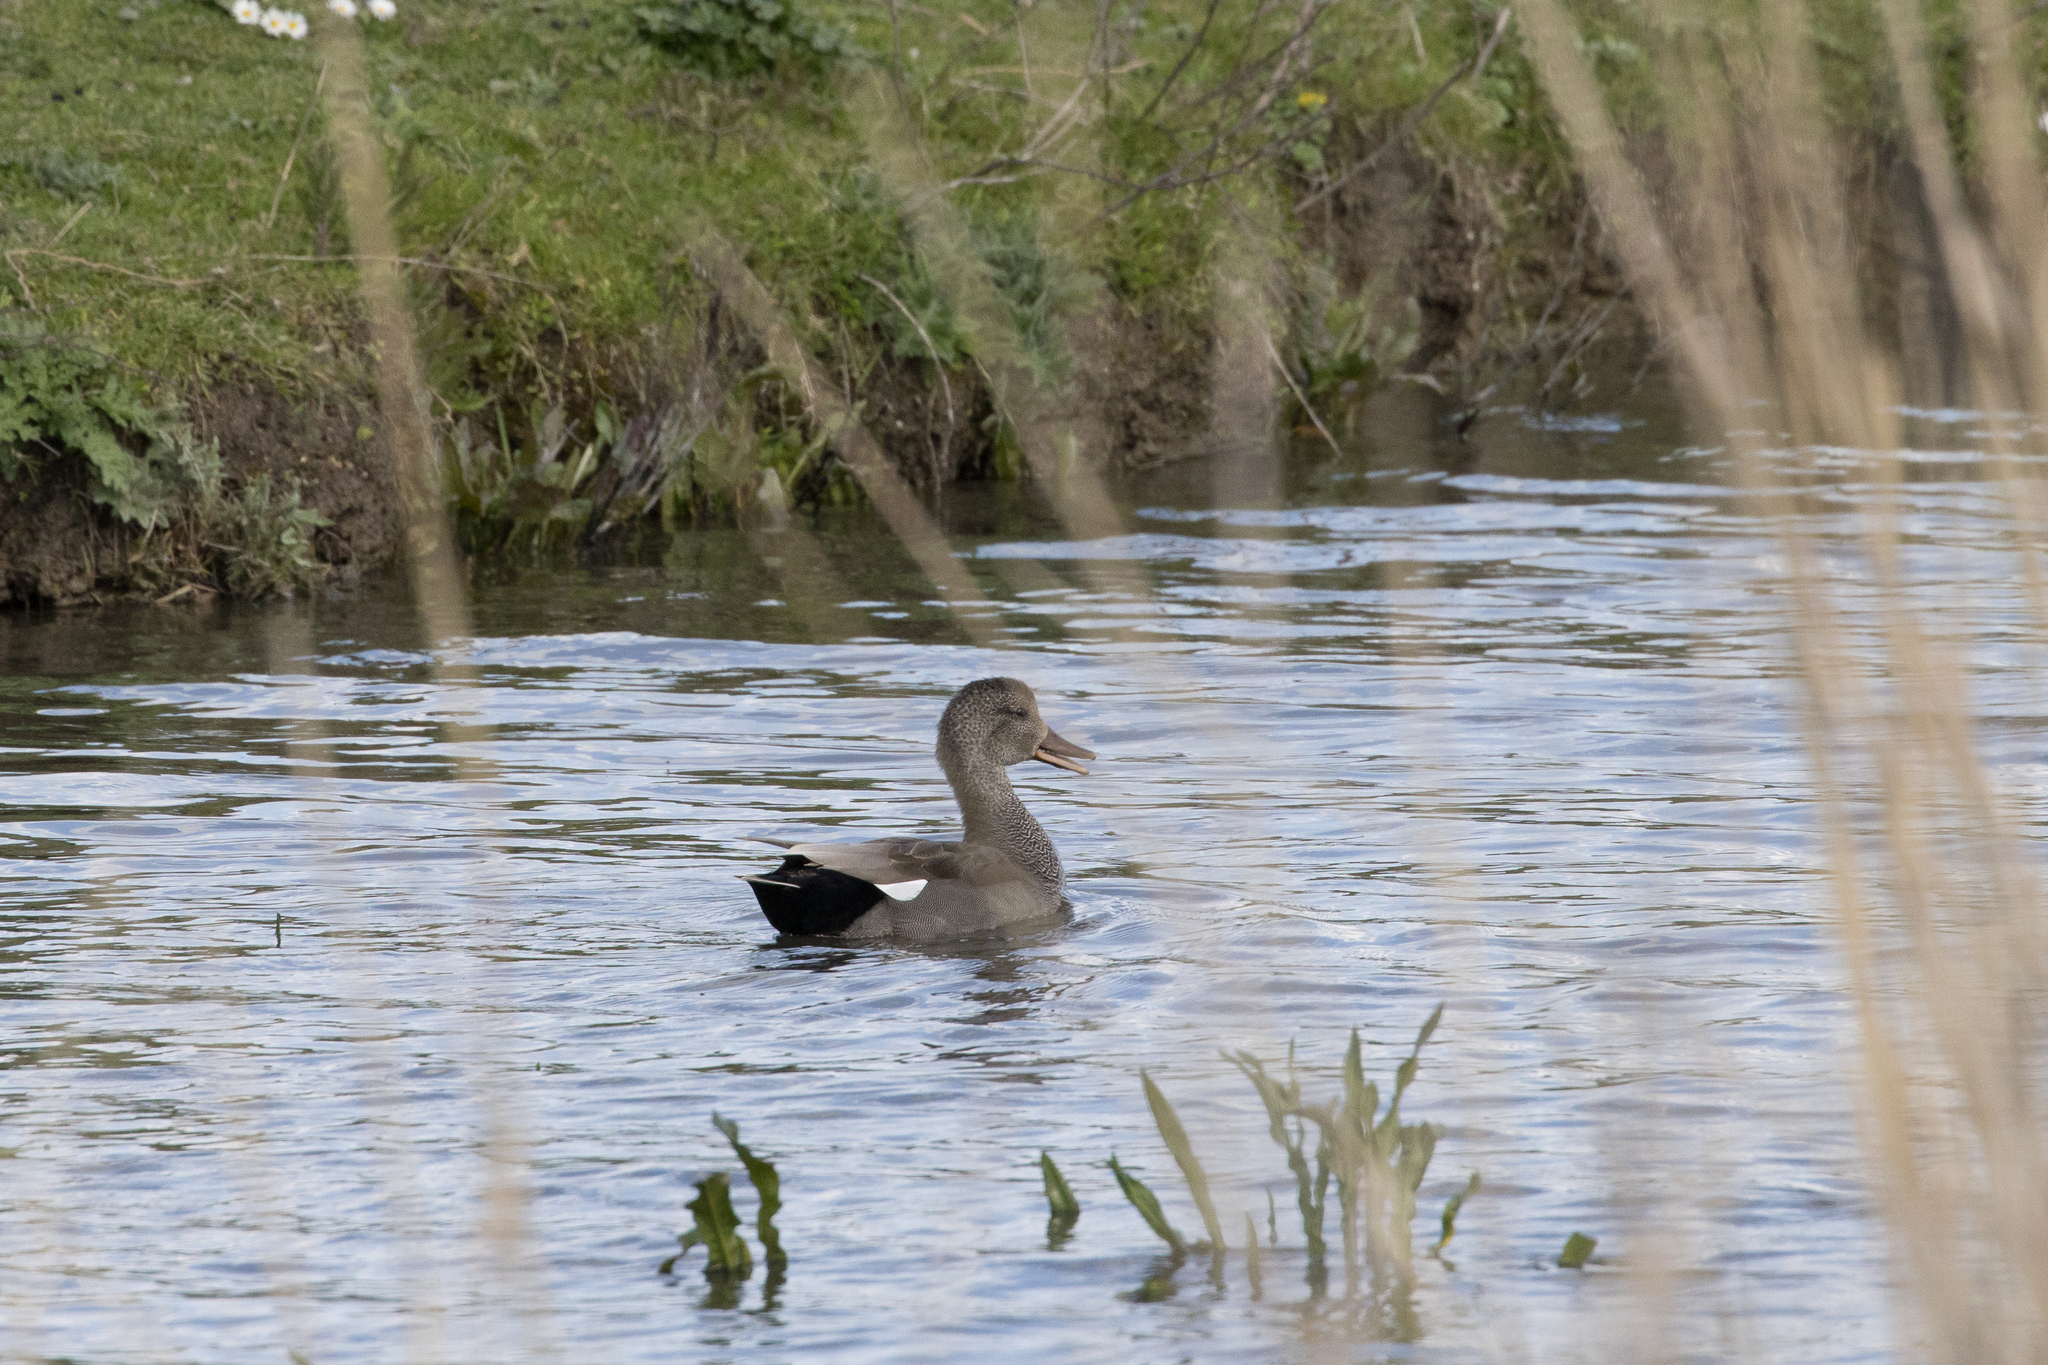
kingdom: Animalia
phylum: Chordata
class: Aves
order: Anseriformes
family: Anatidae
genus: Mareca
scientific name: Mareca strepera
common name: Gadwall
